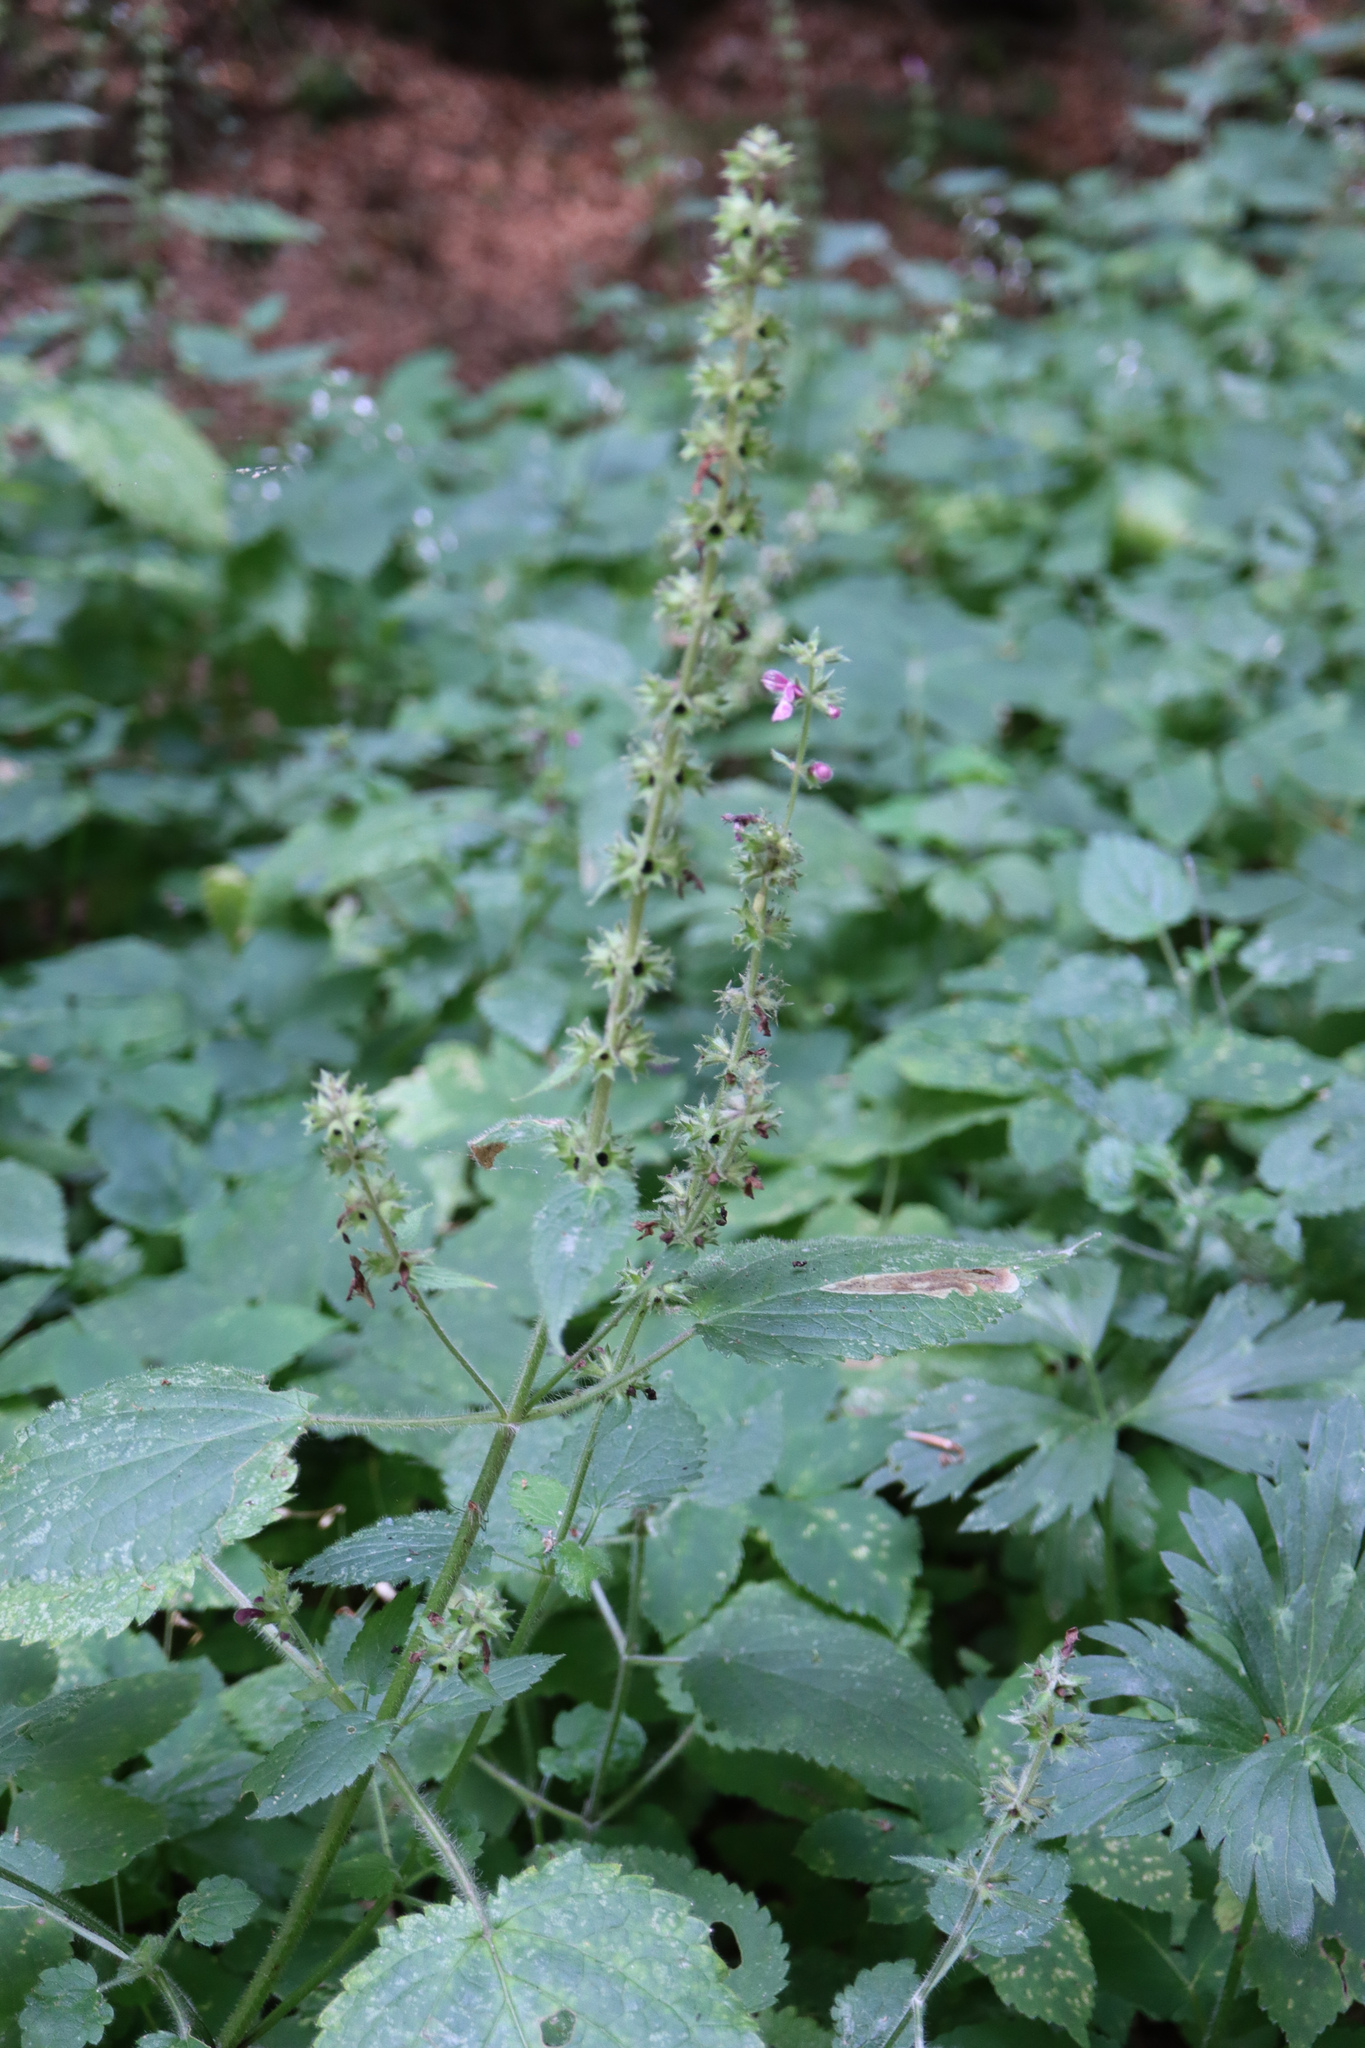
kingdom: Plantae
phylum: Tracheophyta
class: Magnoliopsida
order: Lamiales
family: Lamiaceae
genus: Stachys
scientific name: Stachys sylvatica
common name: Hedge woundwort
